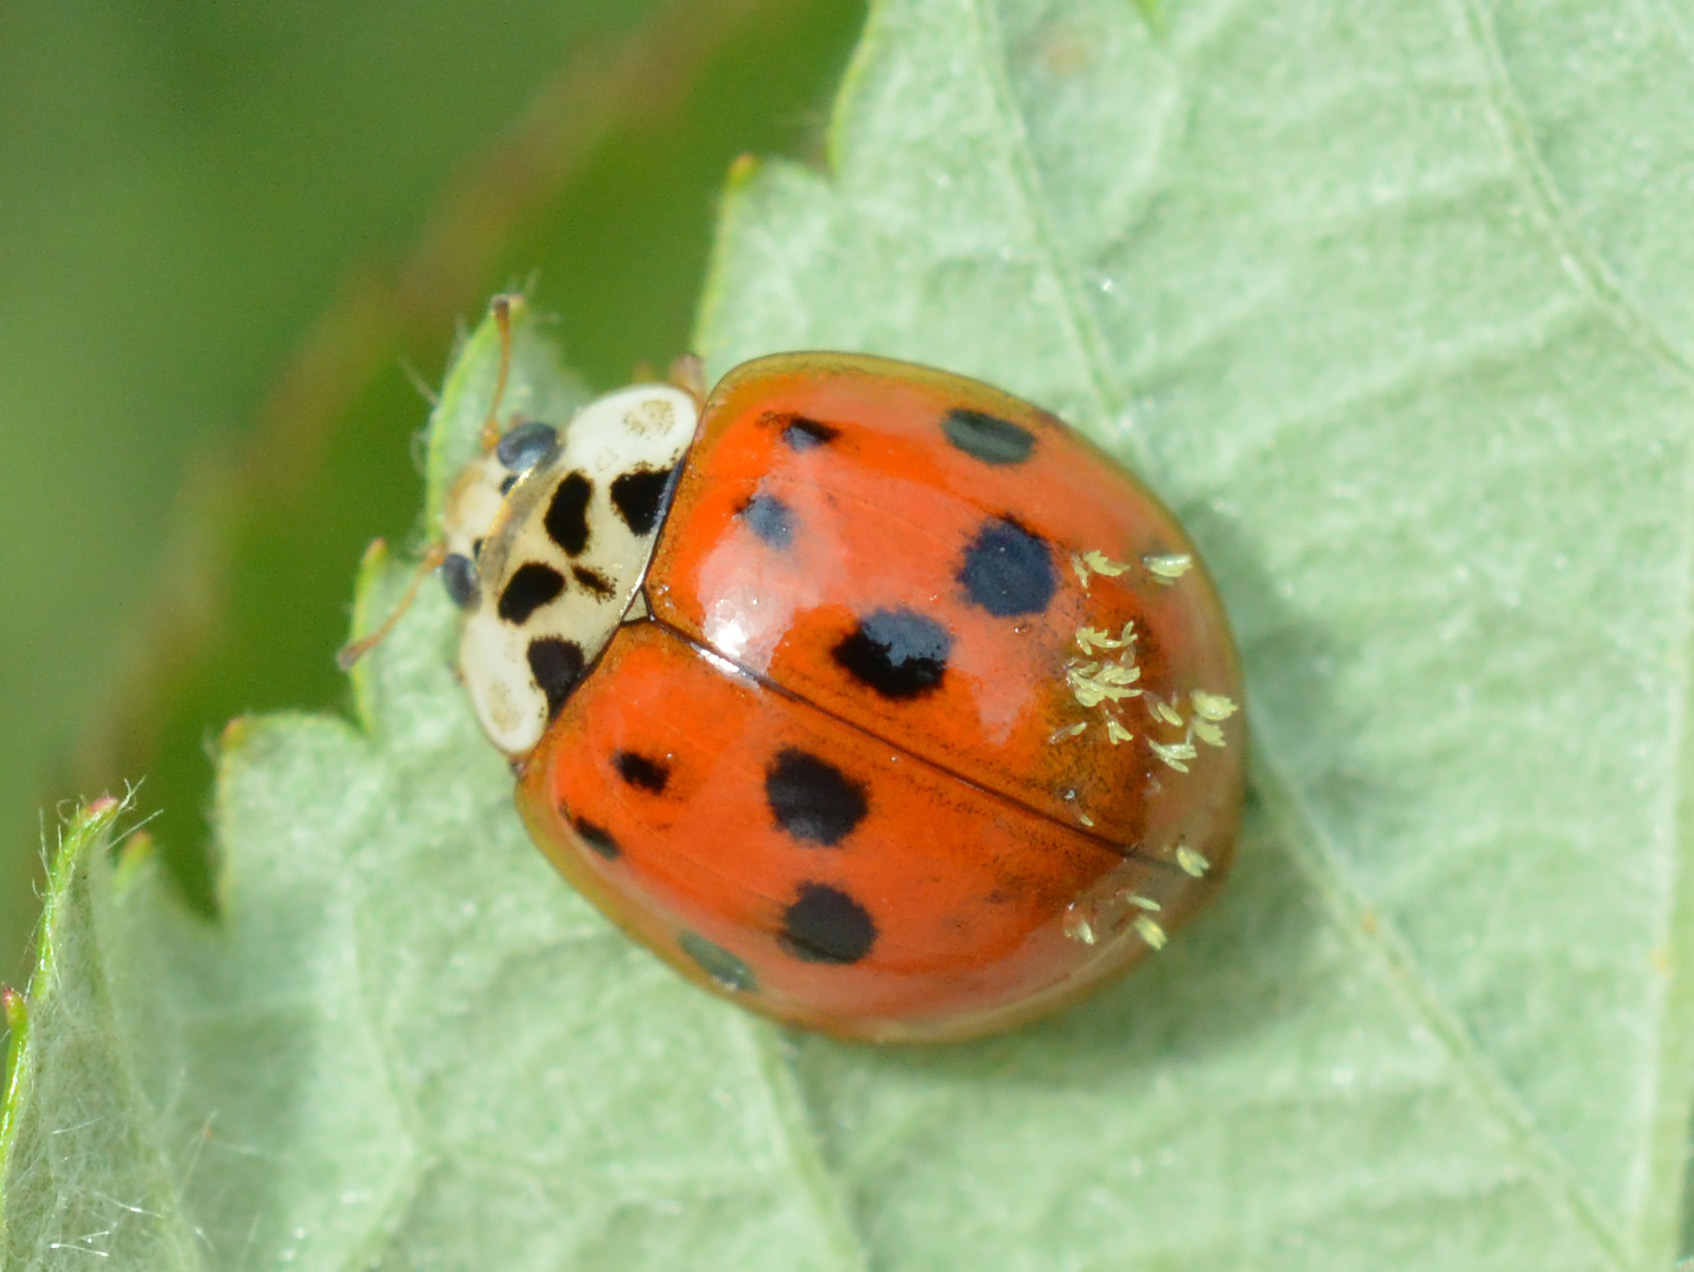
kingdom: Animalia
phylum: Arthropoda
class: Insecta
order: Coleoptera
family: Coccinellidae
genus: Harmonia
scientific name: Harmonia axyridis
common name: Harlequin ladybird
